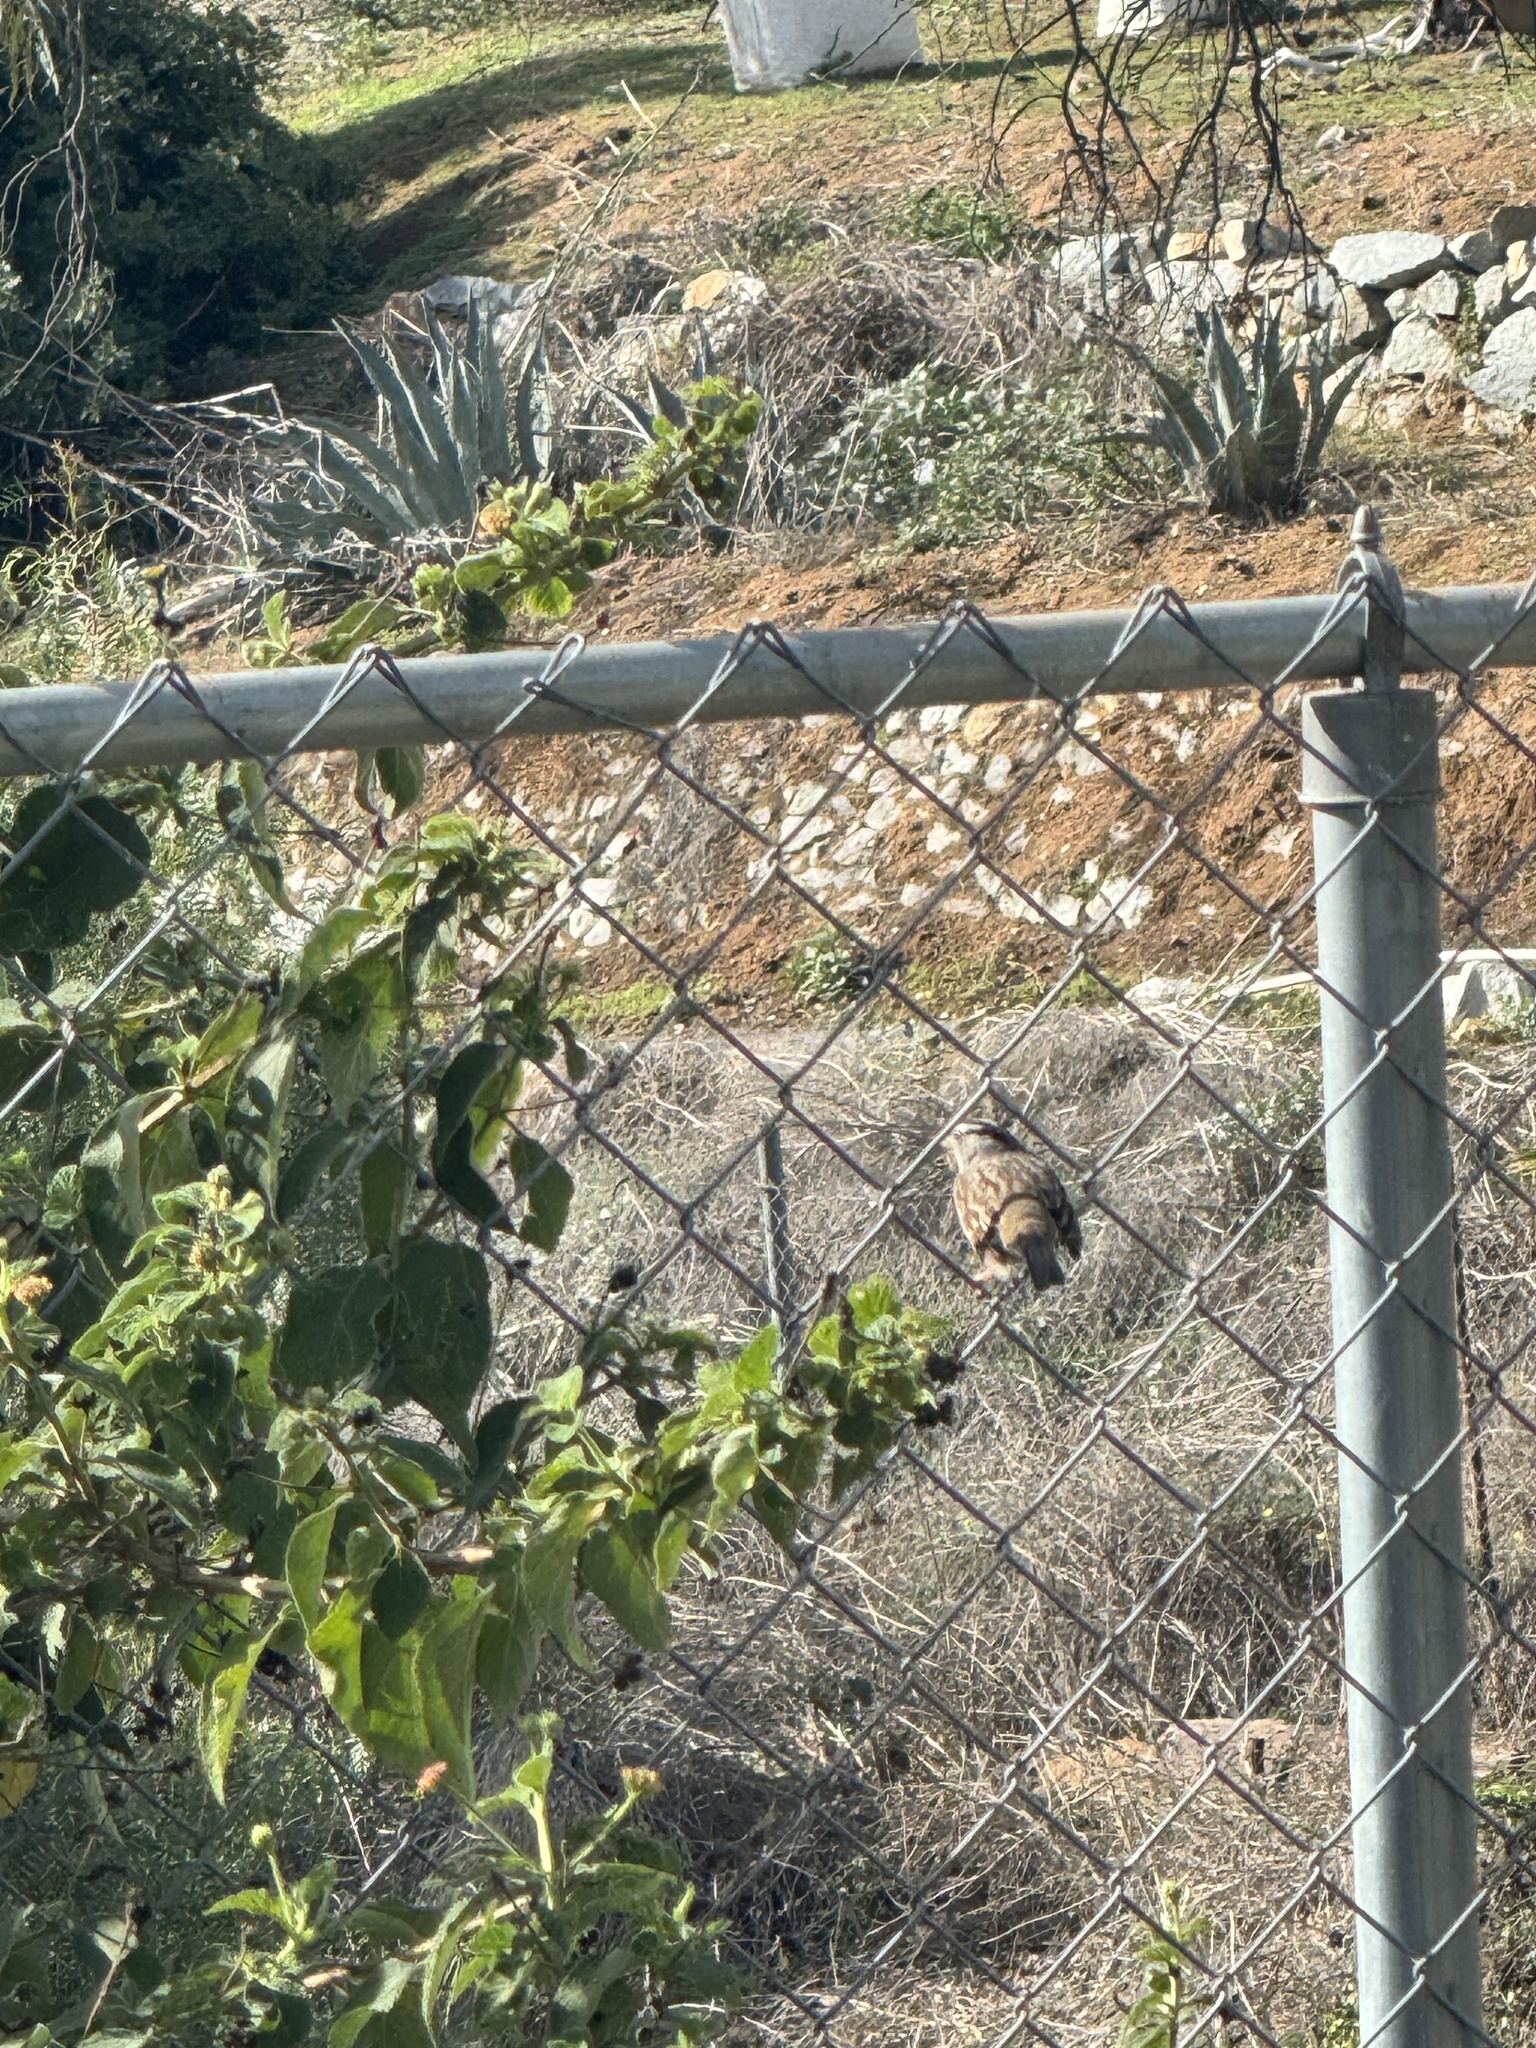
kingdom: Animalia
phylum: Chordata
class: Aves
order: Passeriformes
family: Passerellidae
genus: Zonotrichia
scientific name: Zonotrichia leucophrys
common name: White-crowned sparrow
